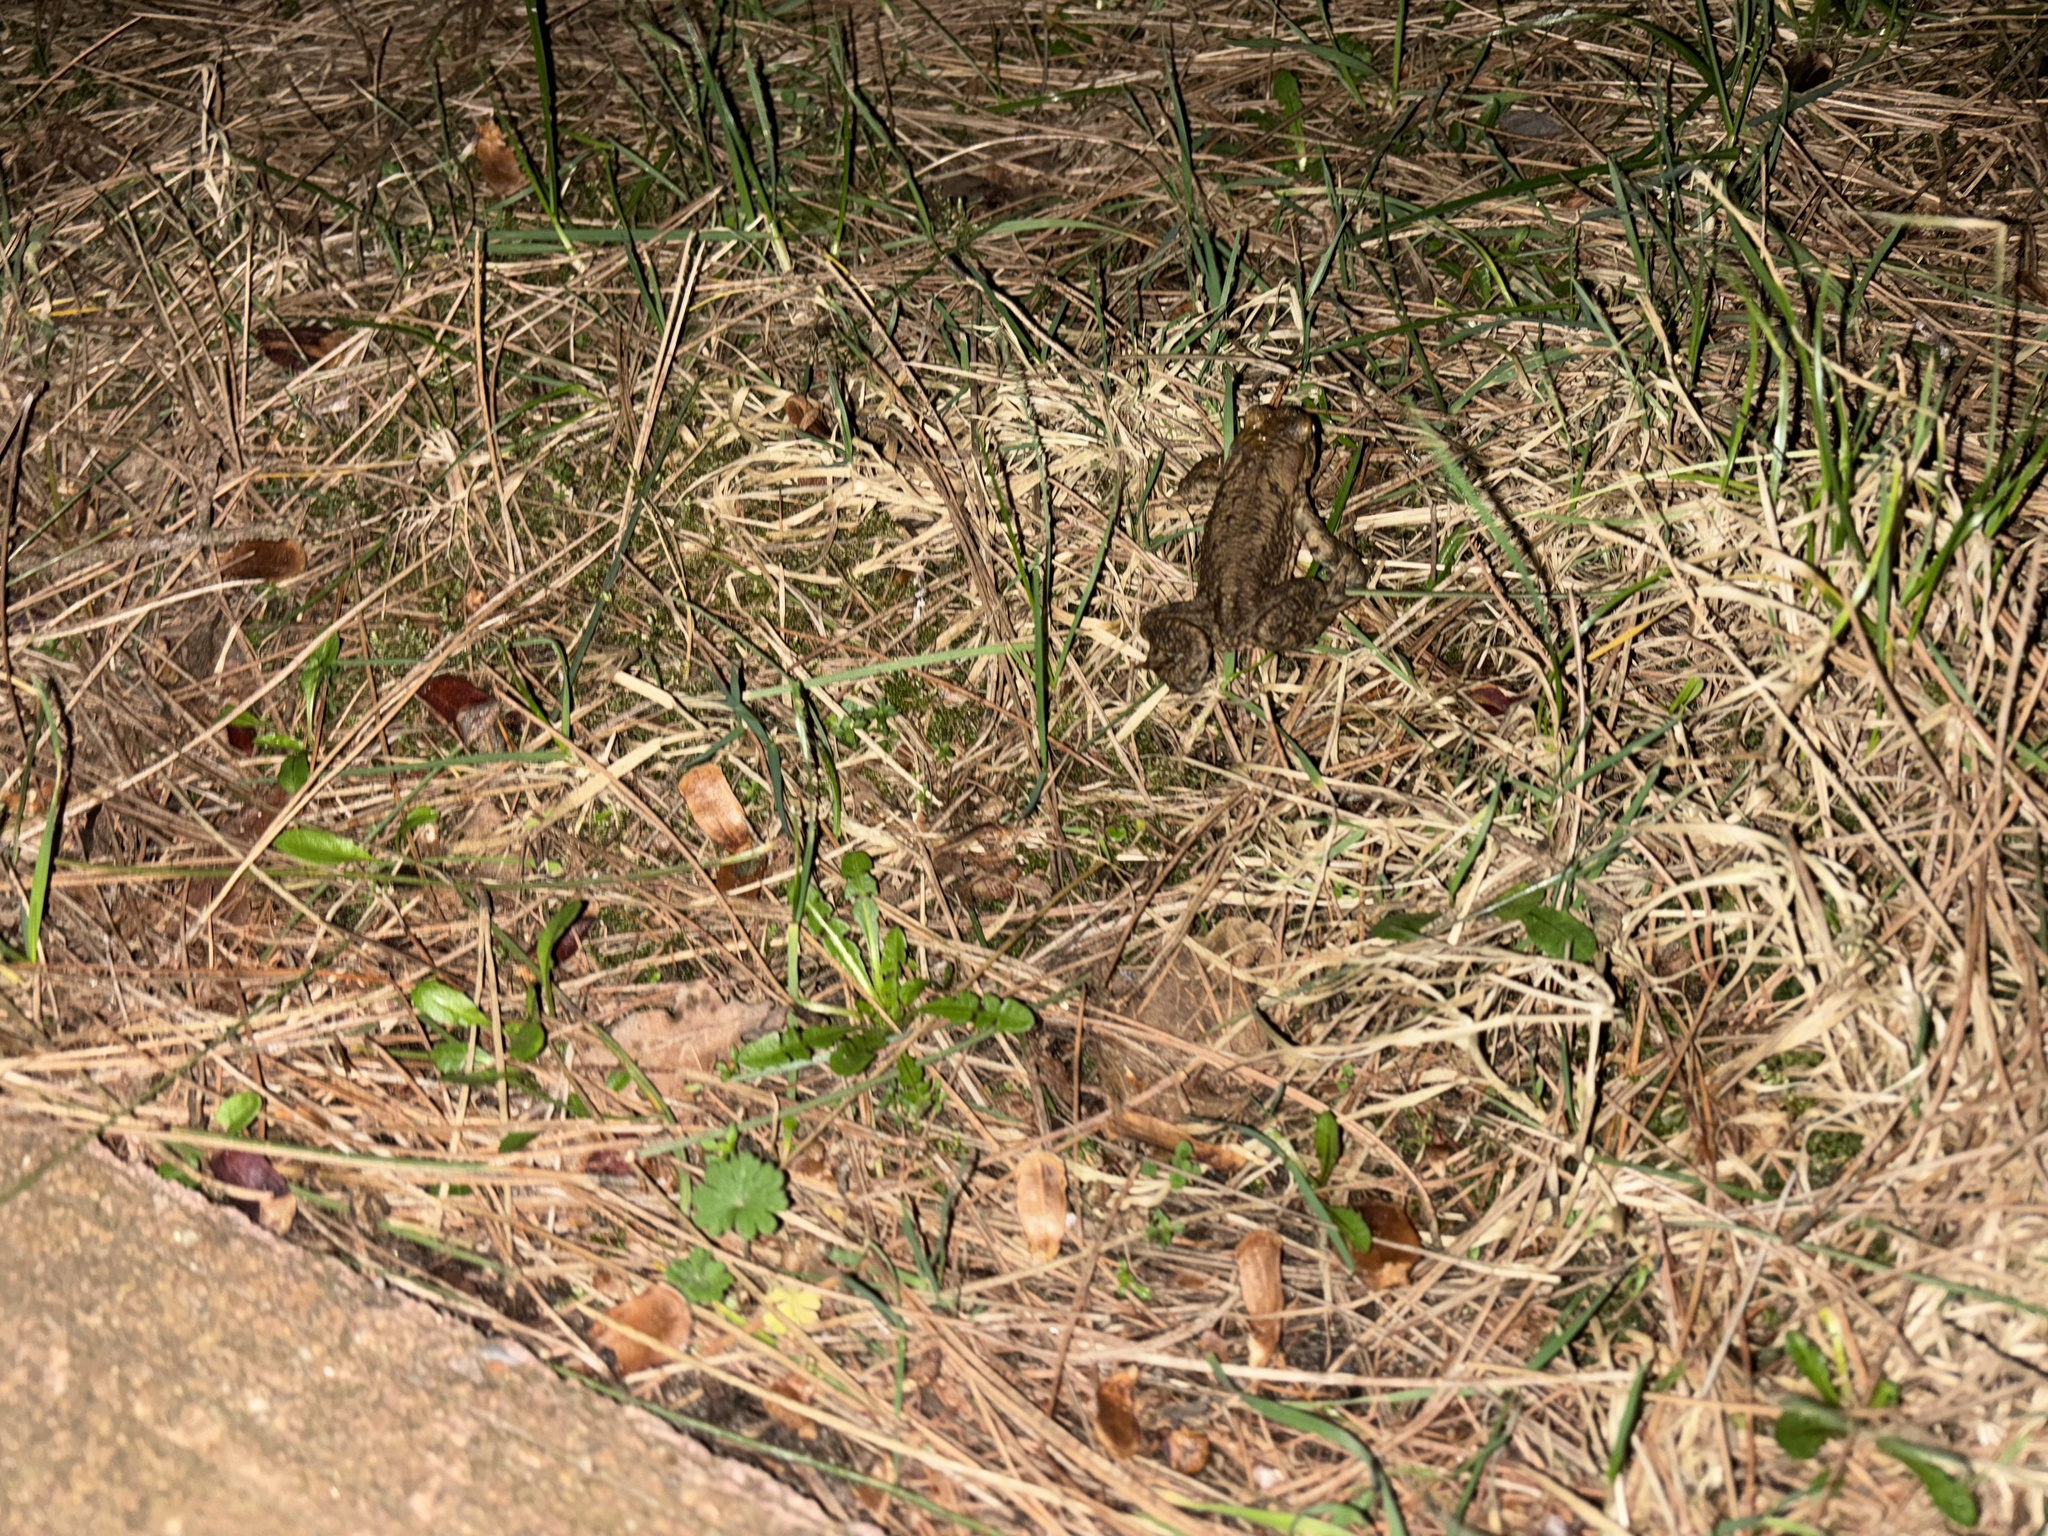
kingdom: Animalia
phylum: Chordata
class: Amphibia
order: Anura
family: Bufonidae
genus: Bufo
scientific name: Bufo bufo
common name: Common toad
